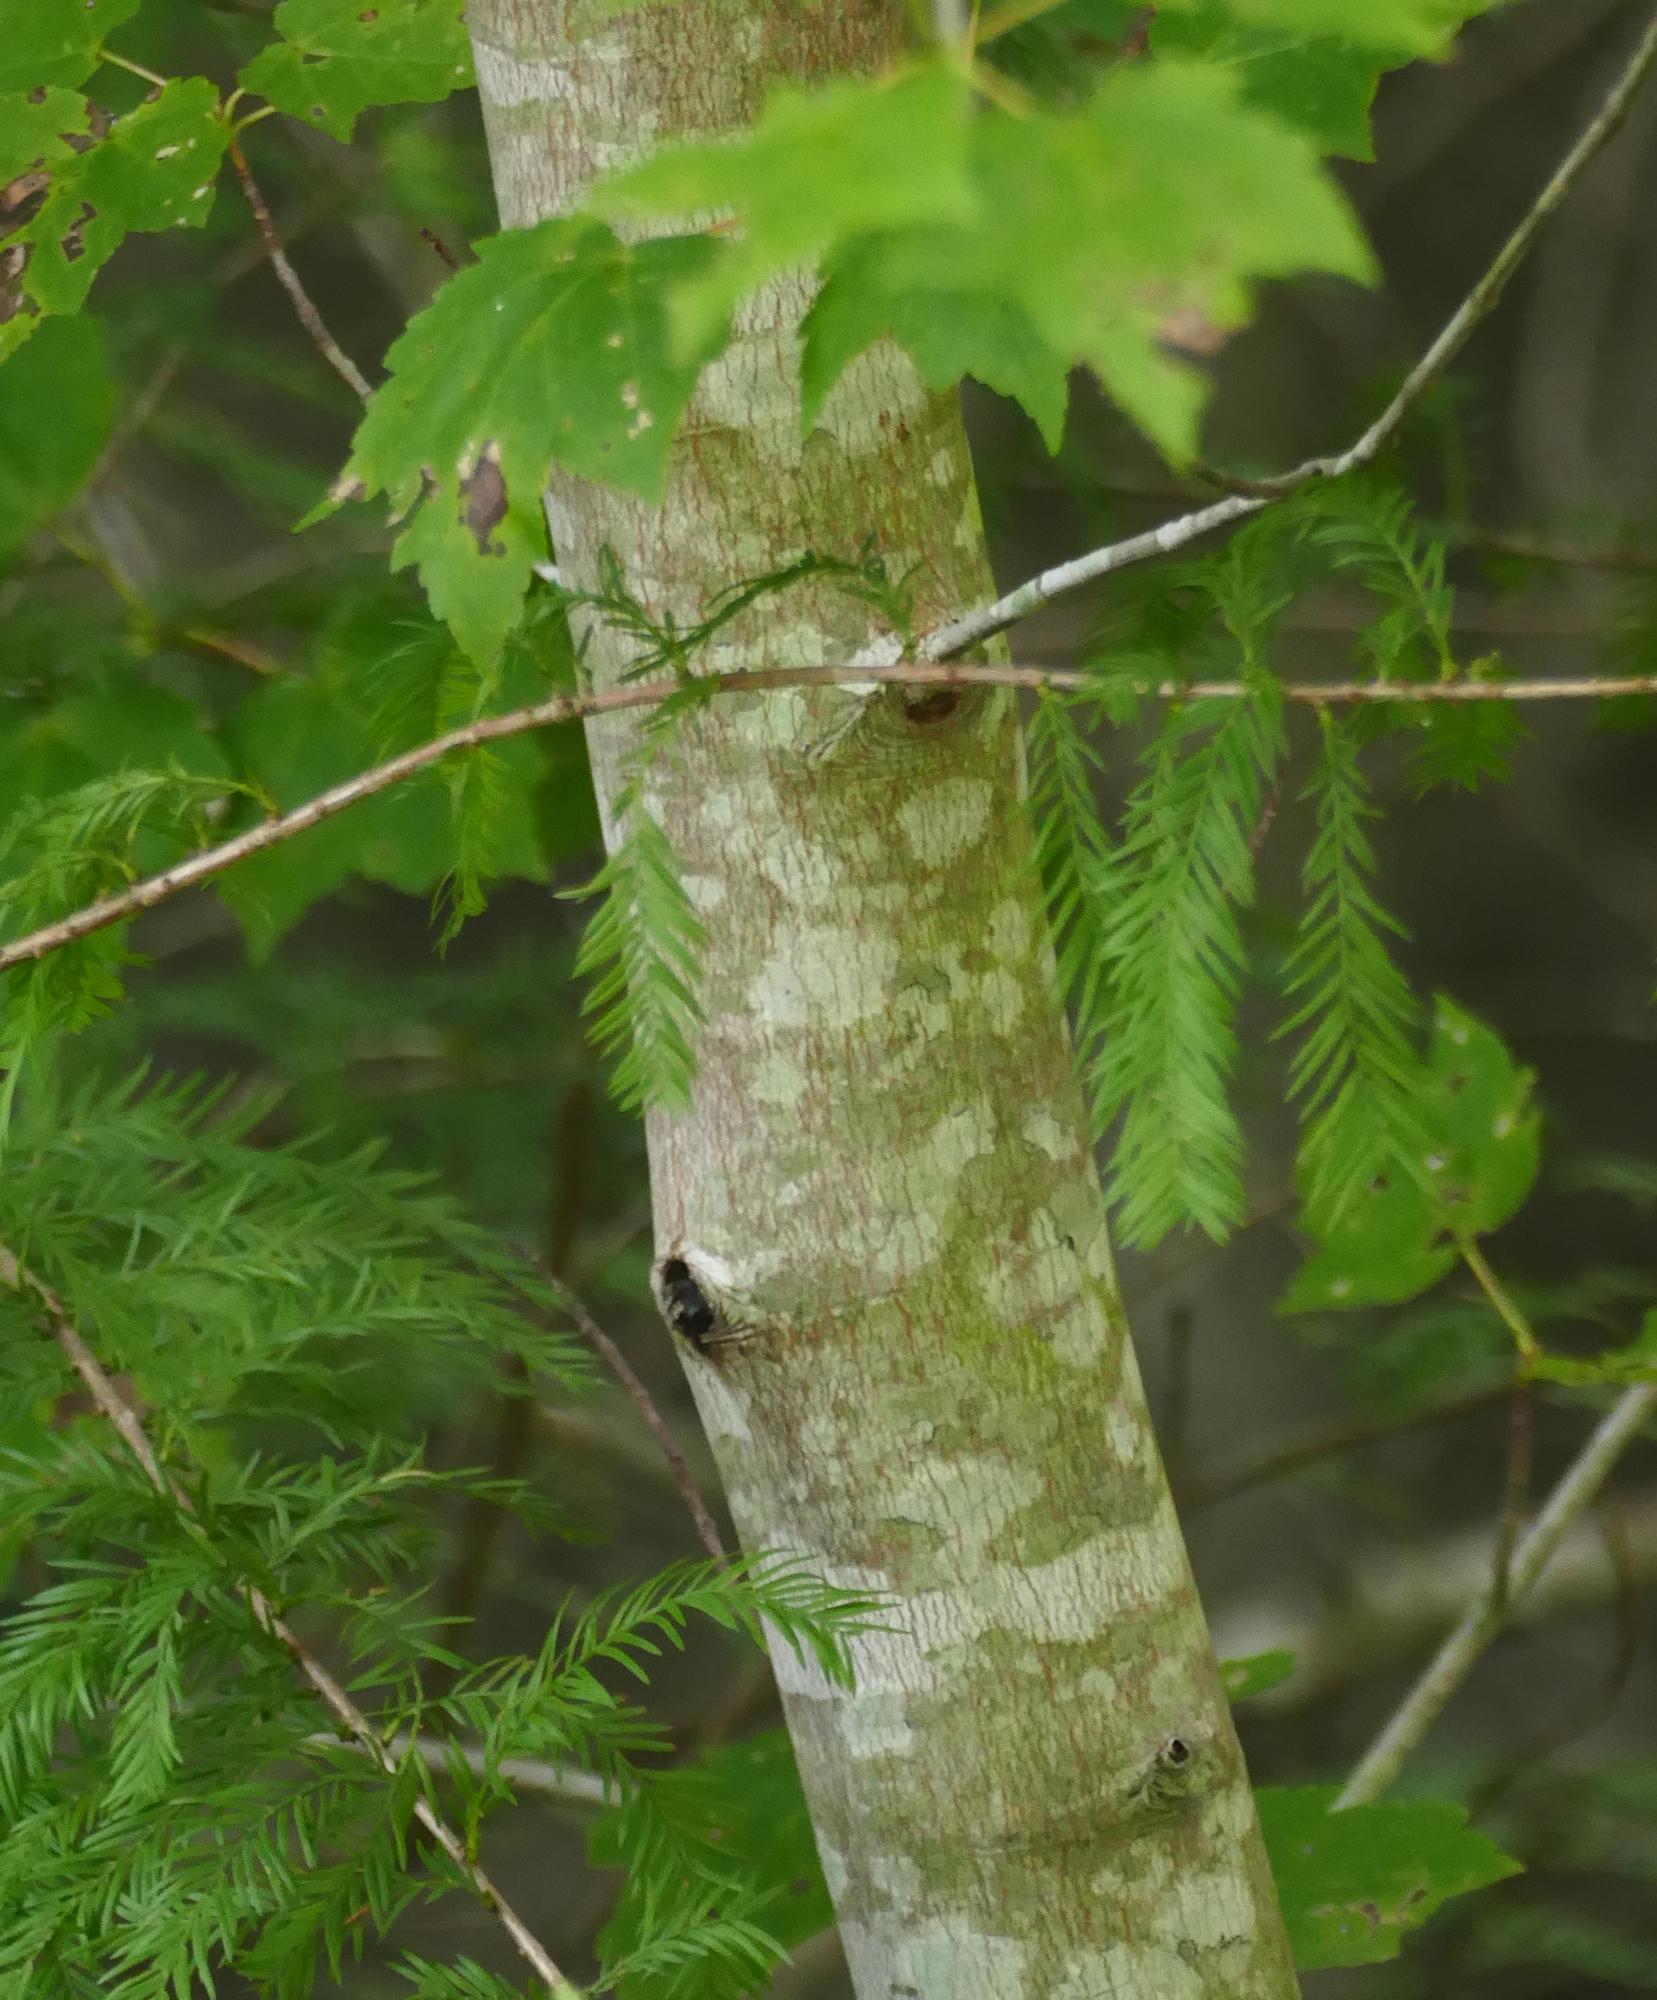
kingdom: Plantae
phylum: Tracheophyta
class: Magnoliopsida
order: Sapindales
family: Sapindaceae
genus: Acer
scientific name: Acer rubrum
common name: Red maple
